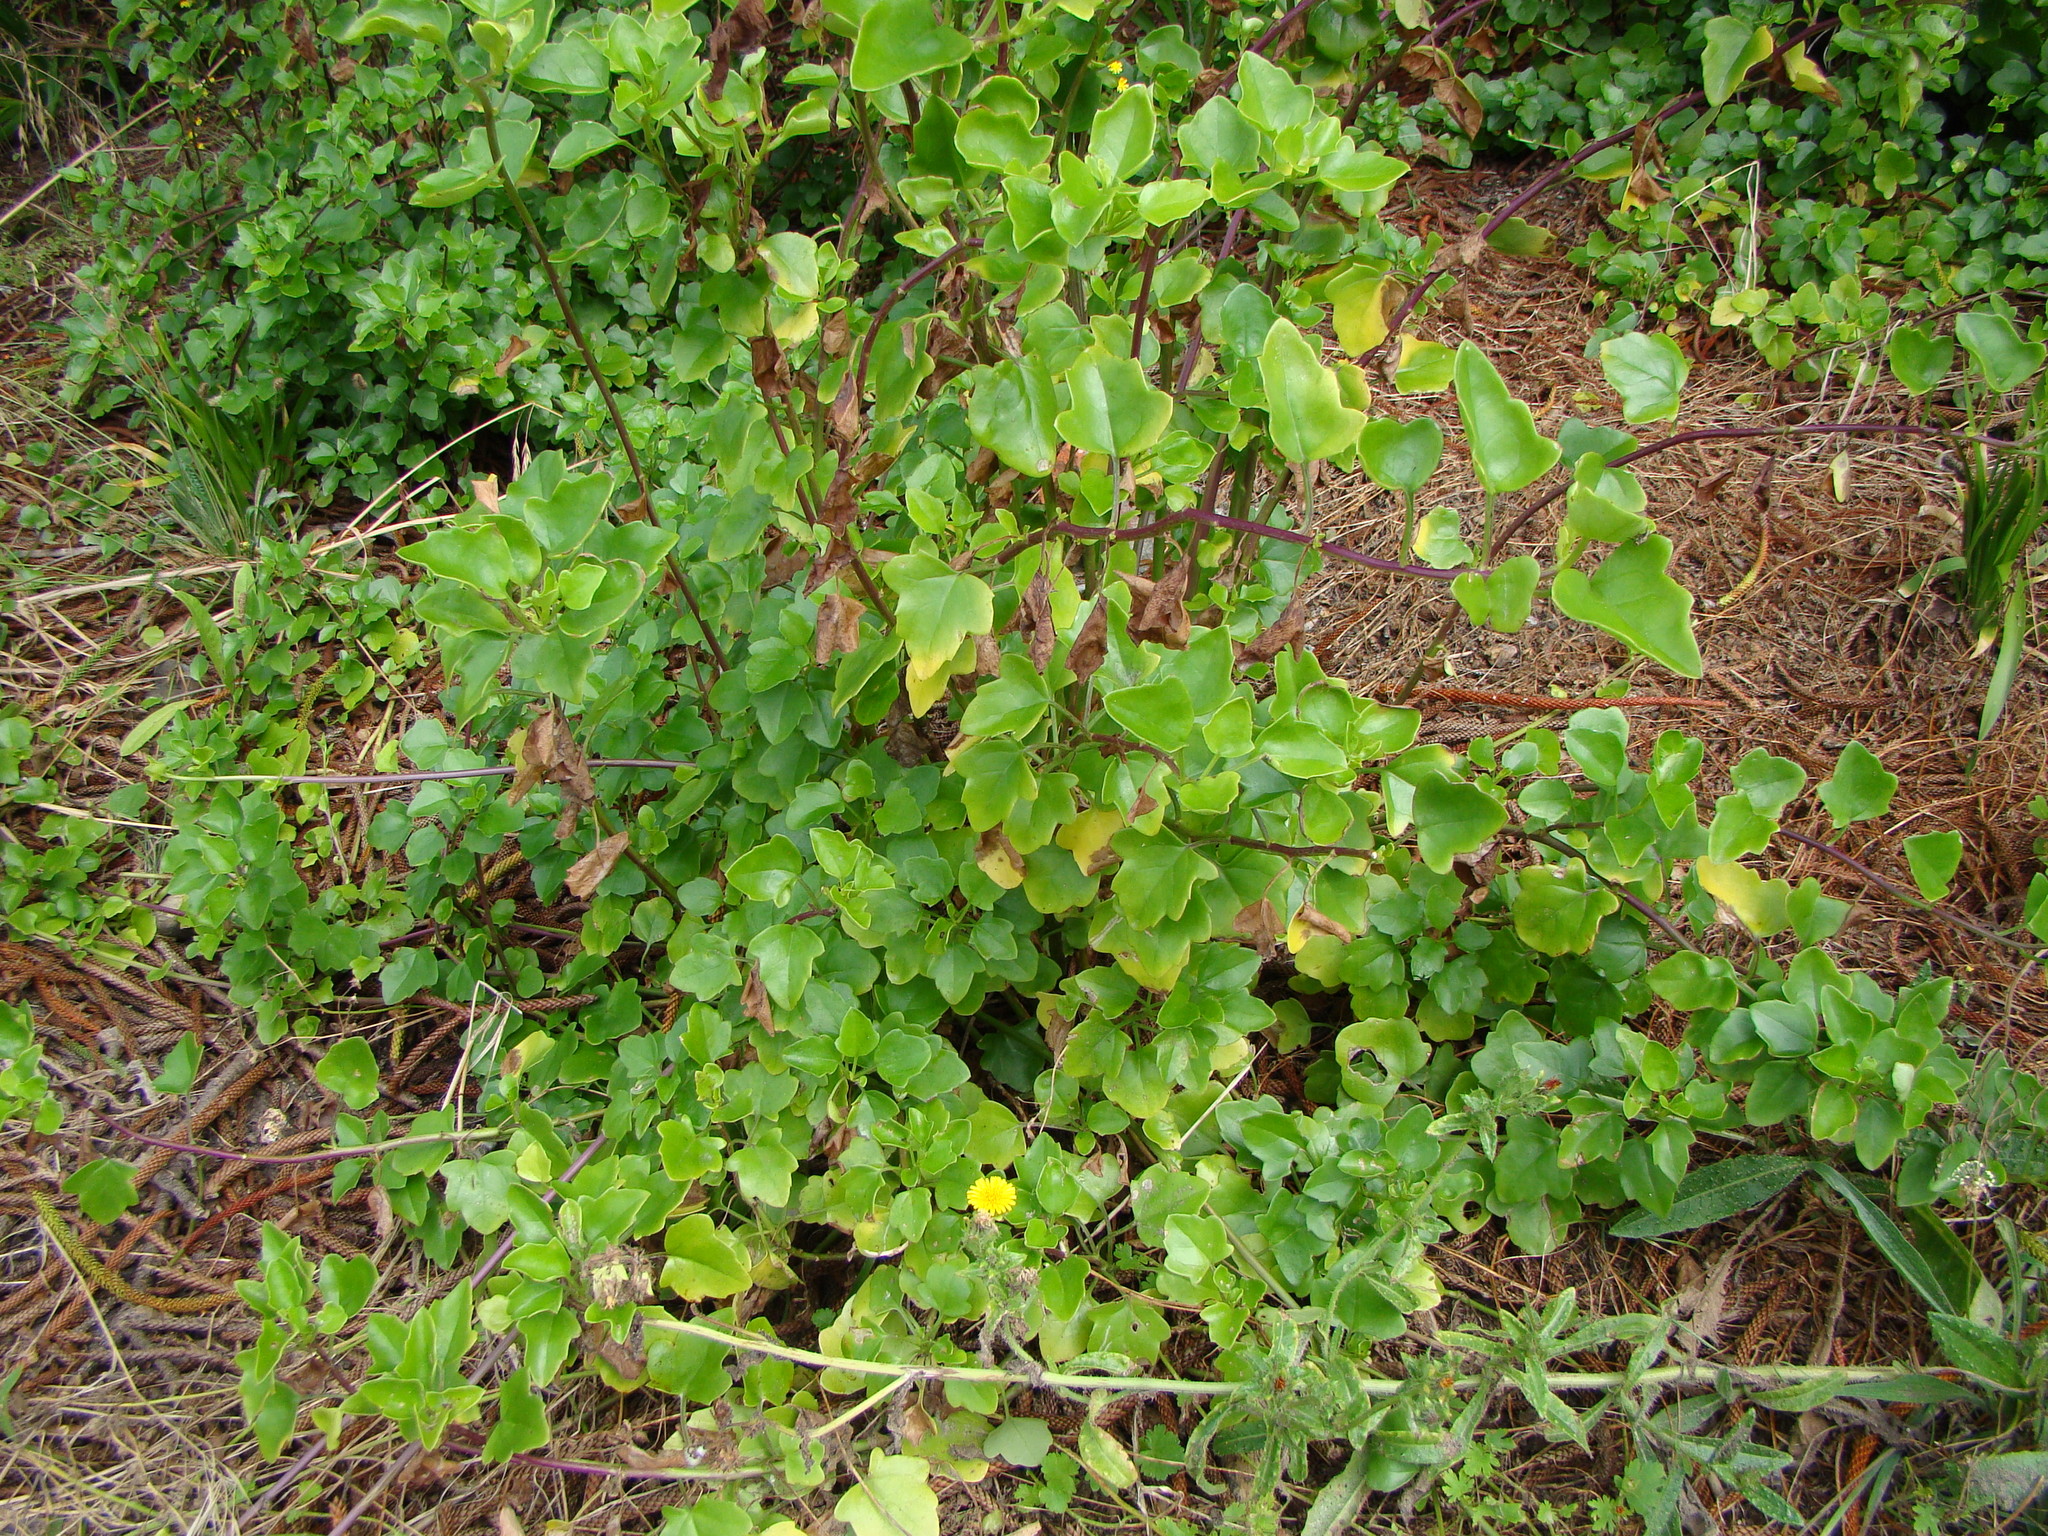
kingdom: Plantae
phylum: Tracheophyta
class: Magnoliopsida
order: Asterales
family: Asteraceae
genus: Senecio
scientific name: Senecio angulatus
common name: Climbing groundsel
